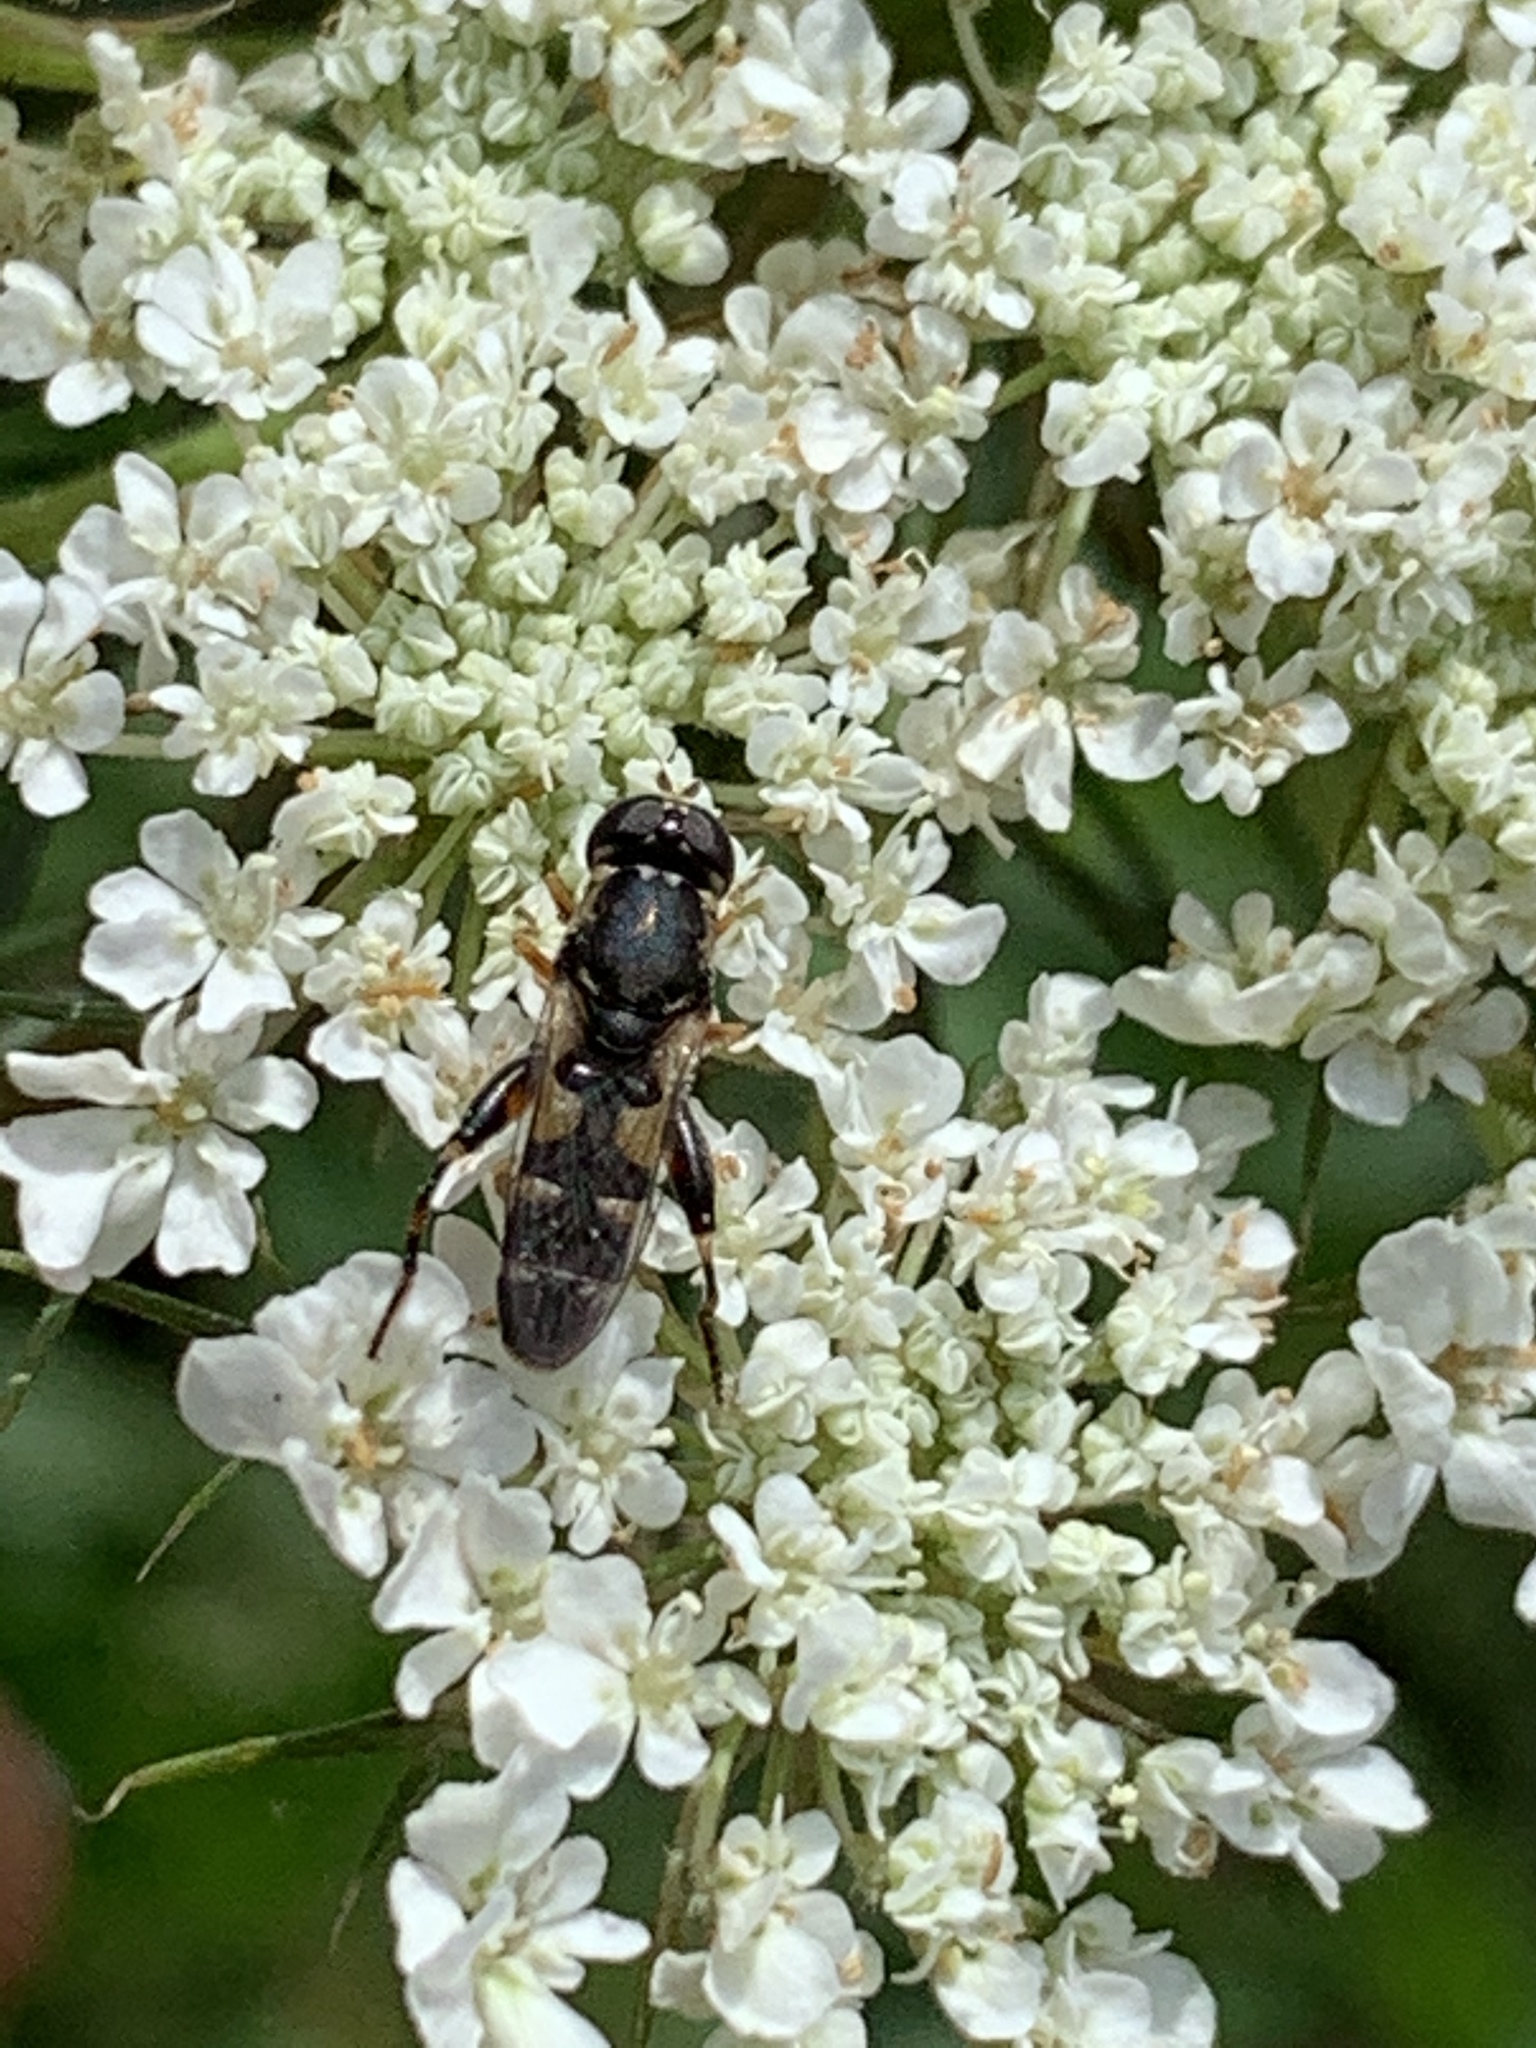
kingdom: Animalia
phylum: Arthropoda
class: Insecta
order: Diptera
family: Syrphidae
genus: Syritta
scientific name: Syritta pipiens
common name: Hover fly
